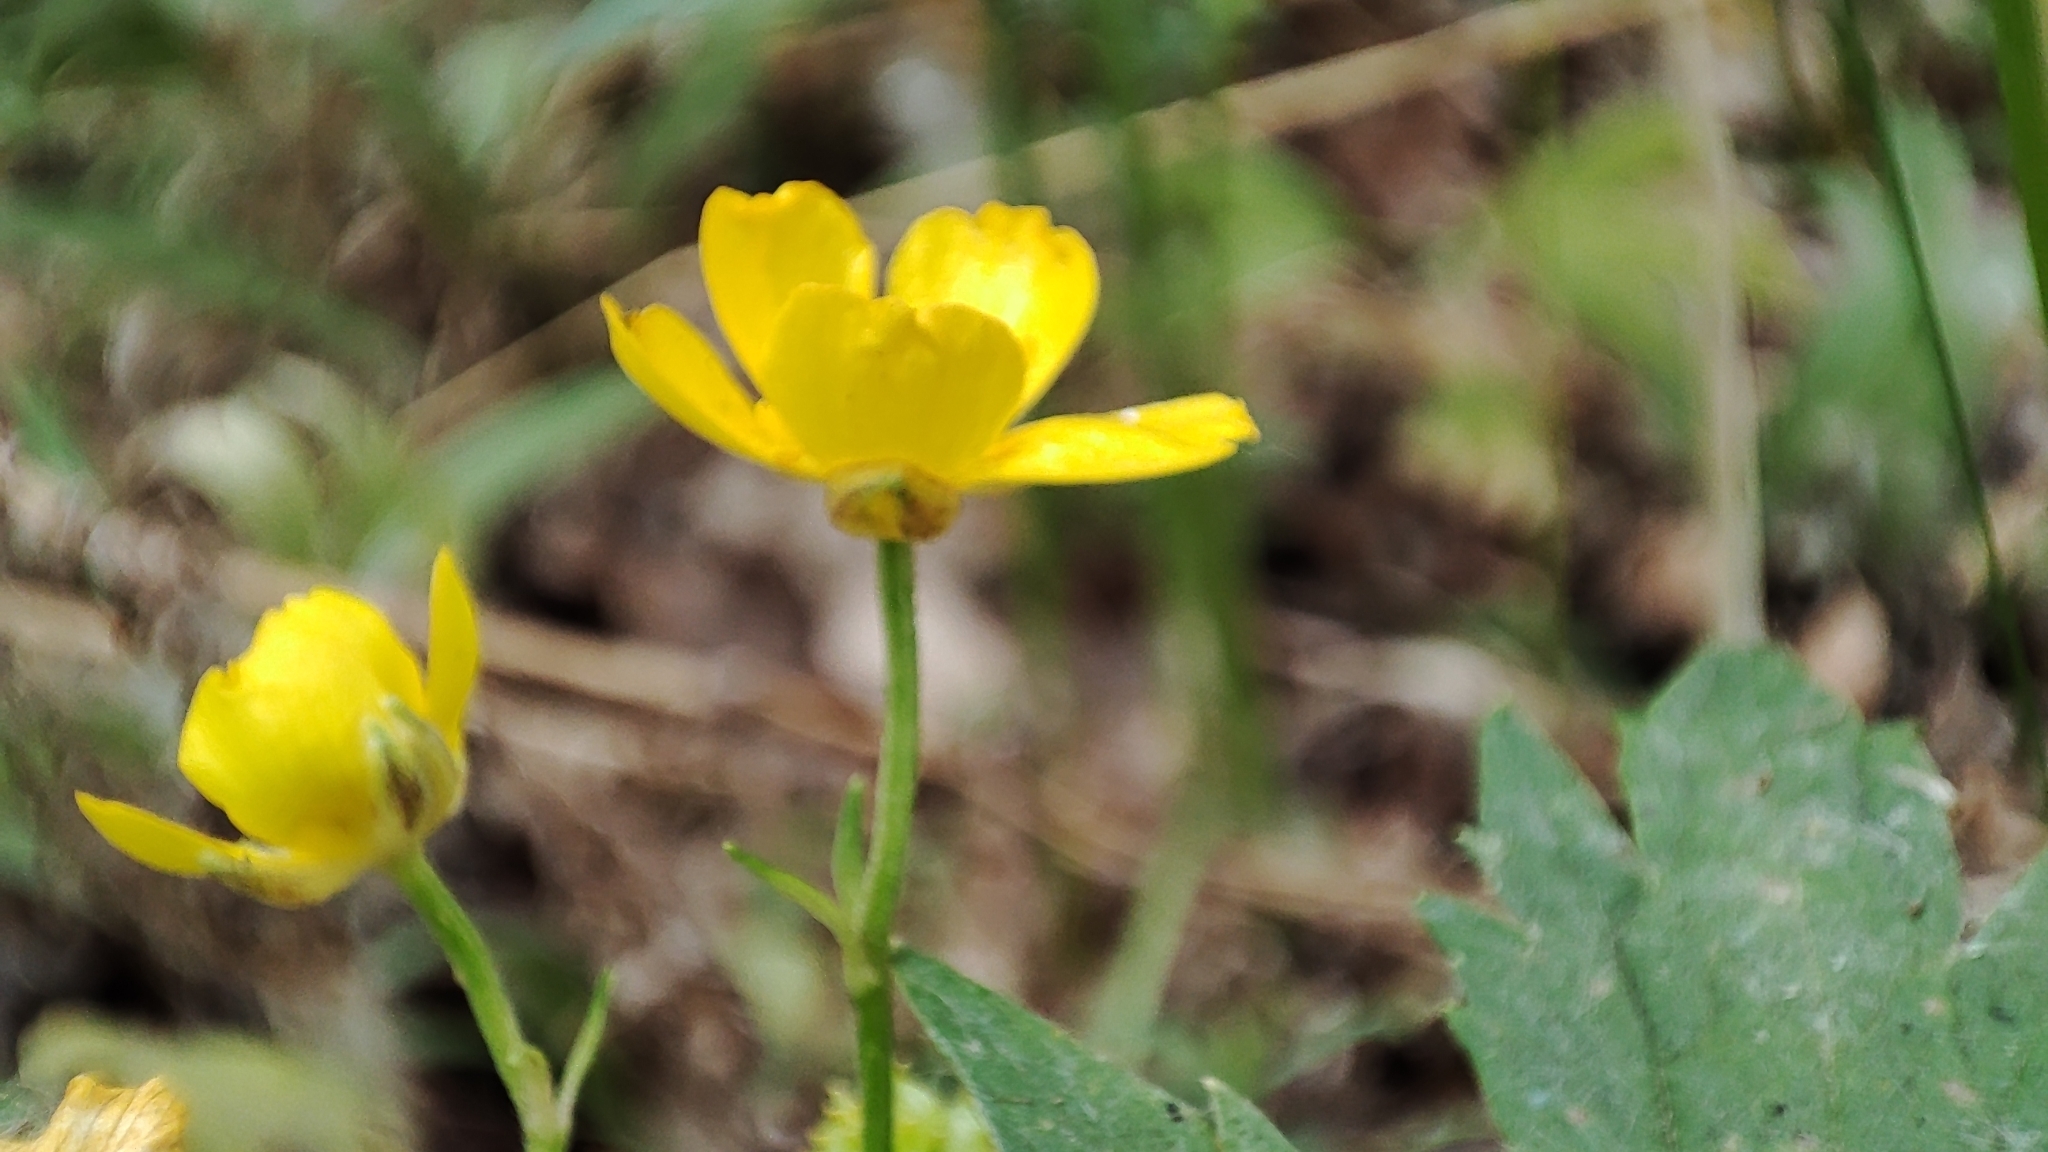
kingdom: Plantae
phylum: Tracheophyta
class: Magnoliopsida
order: Ranunculales
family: Ranunculaceae
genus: Ranunculus
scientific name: Ranunculus repens
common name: Creeping buttercup
